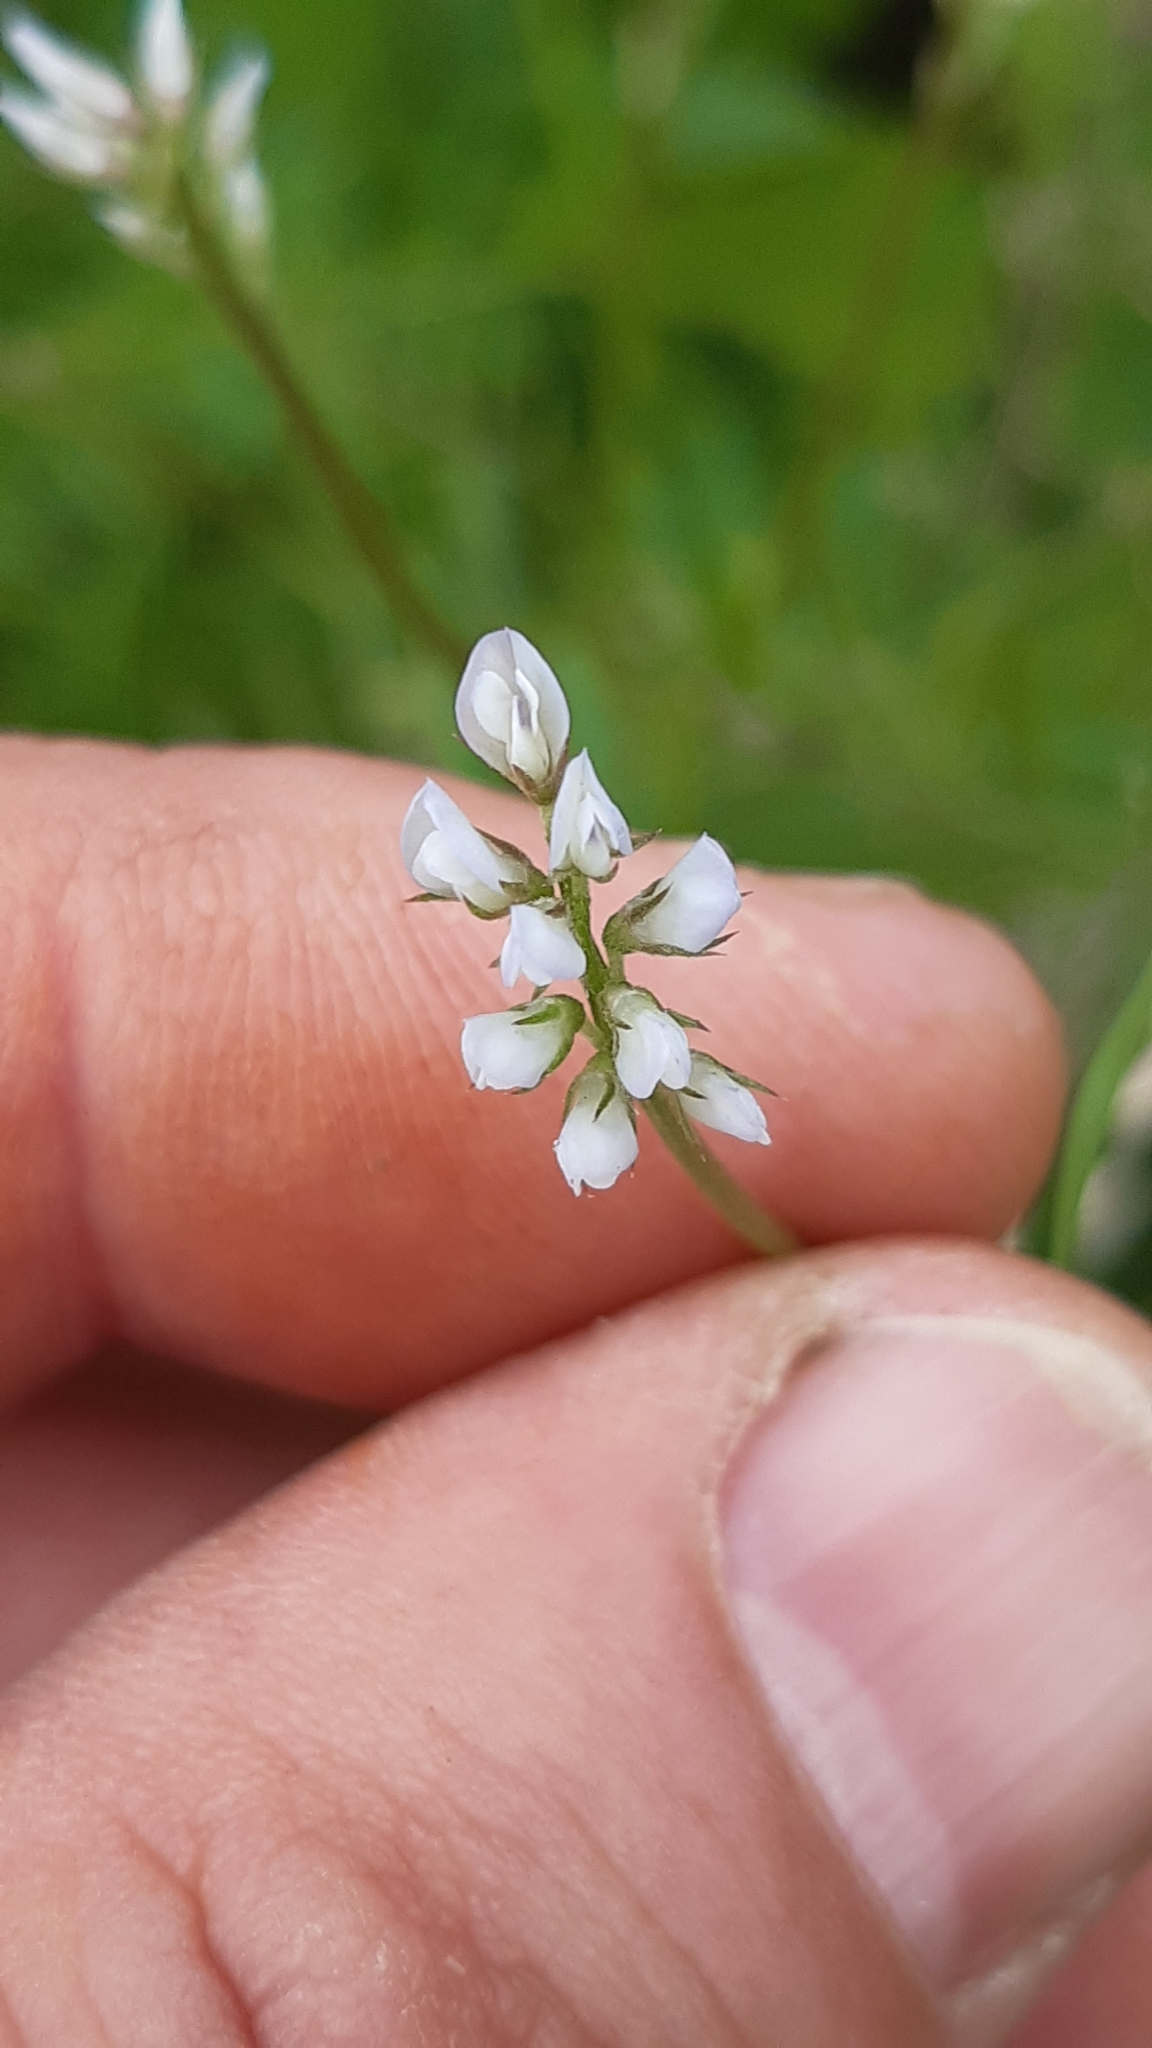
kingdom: Plantae
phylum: Tracheophyta
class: Magnoliopsida
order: Fabales
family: Fabaceae
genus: Vicia
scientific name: Vicia hirsuta
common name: Tiny vetch
